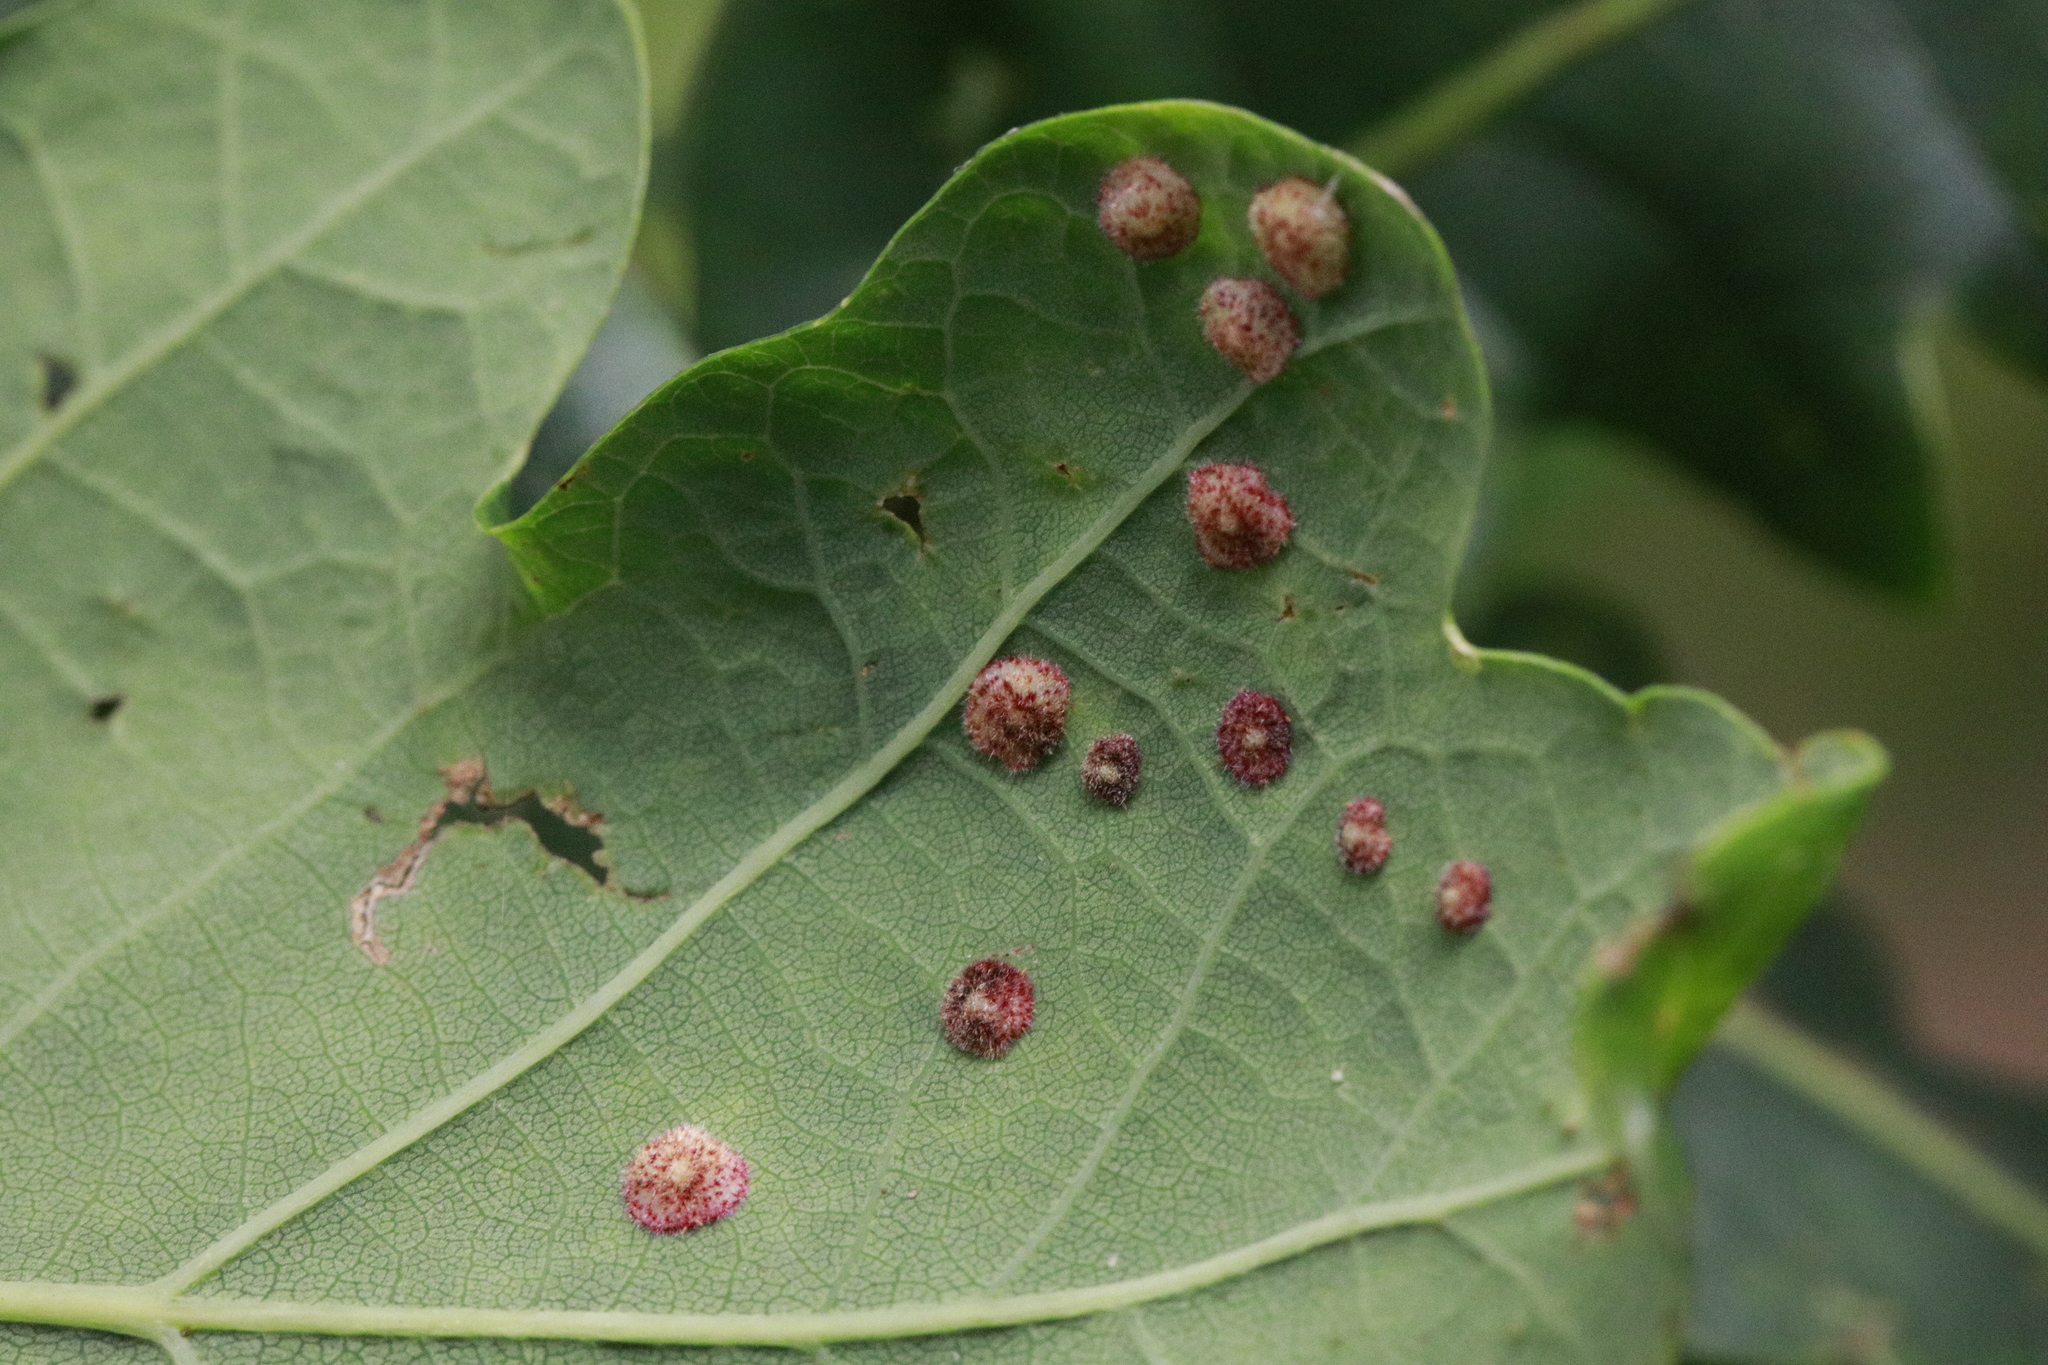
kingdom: Animalia
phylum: Arthropoda
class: Insecta
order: Hymenoptera
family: Cynipidae
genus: Neuroterus
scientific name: Neuroterus quercusbaccarum
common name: Common spangle gall
